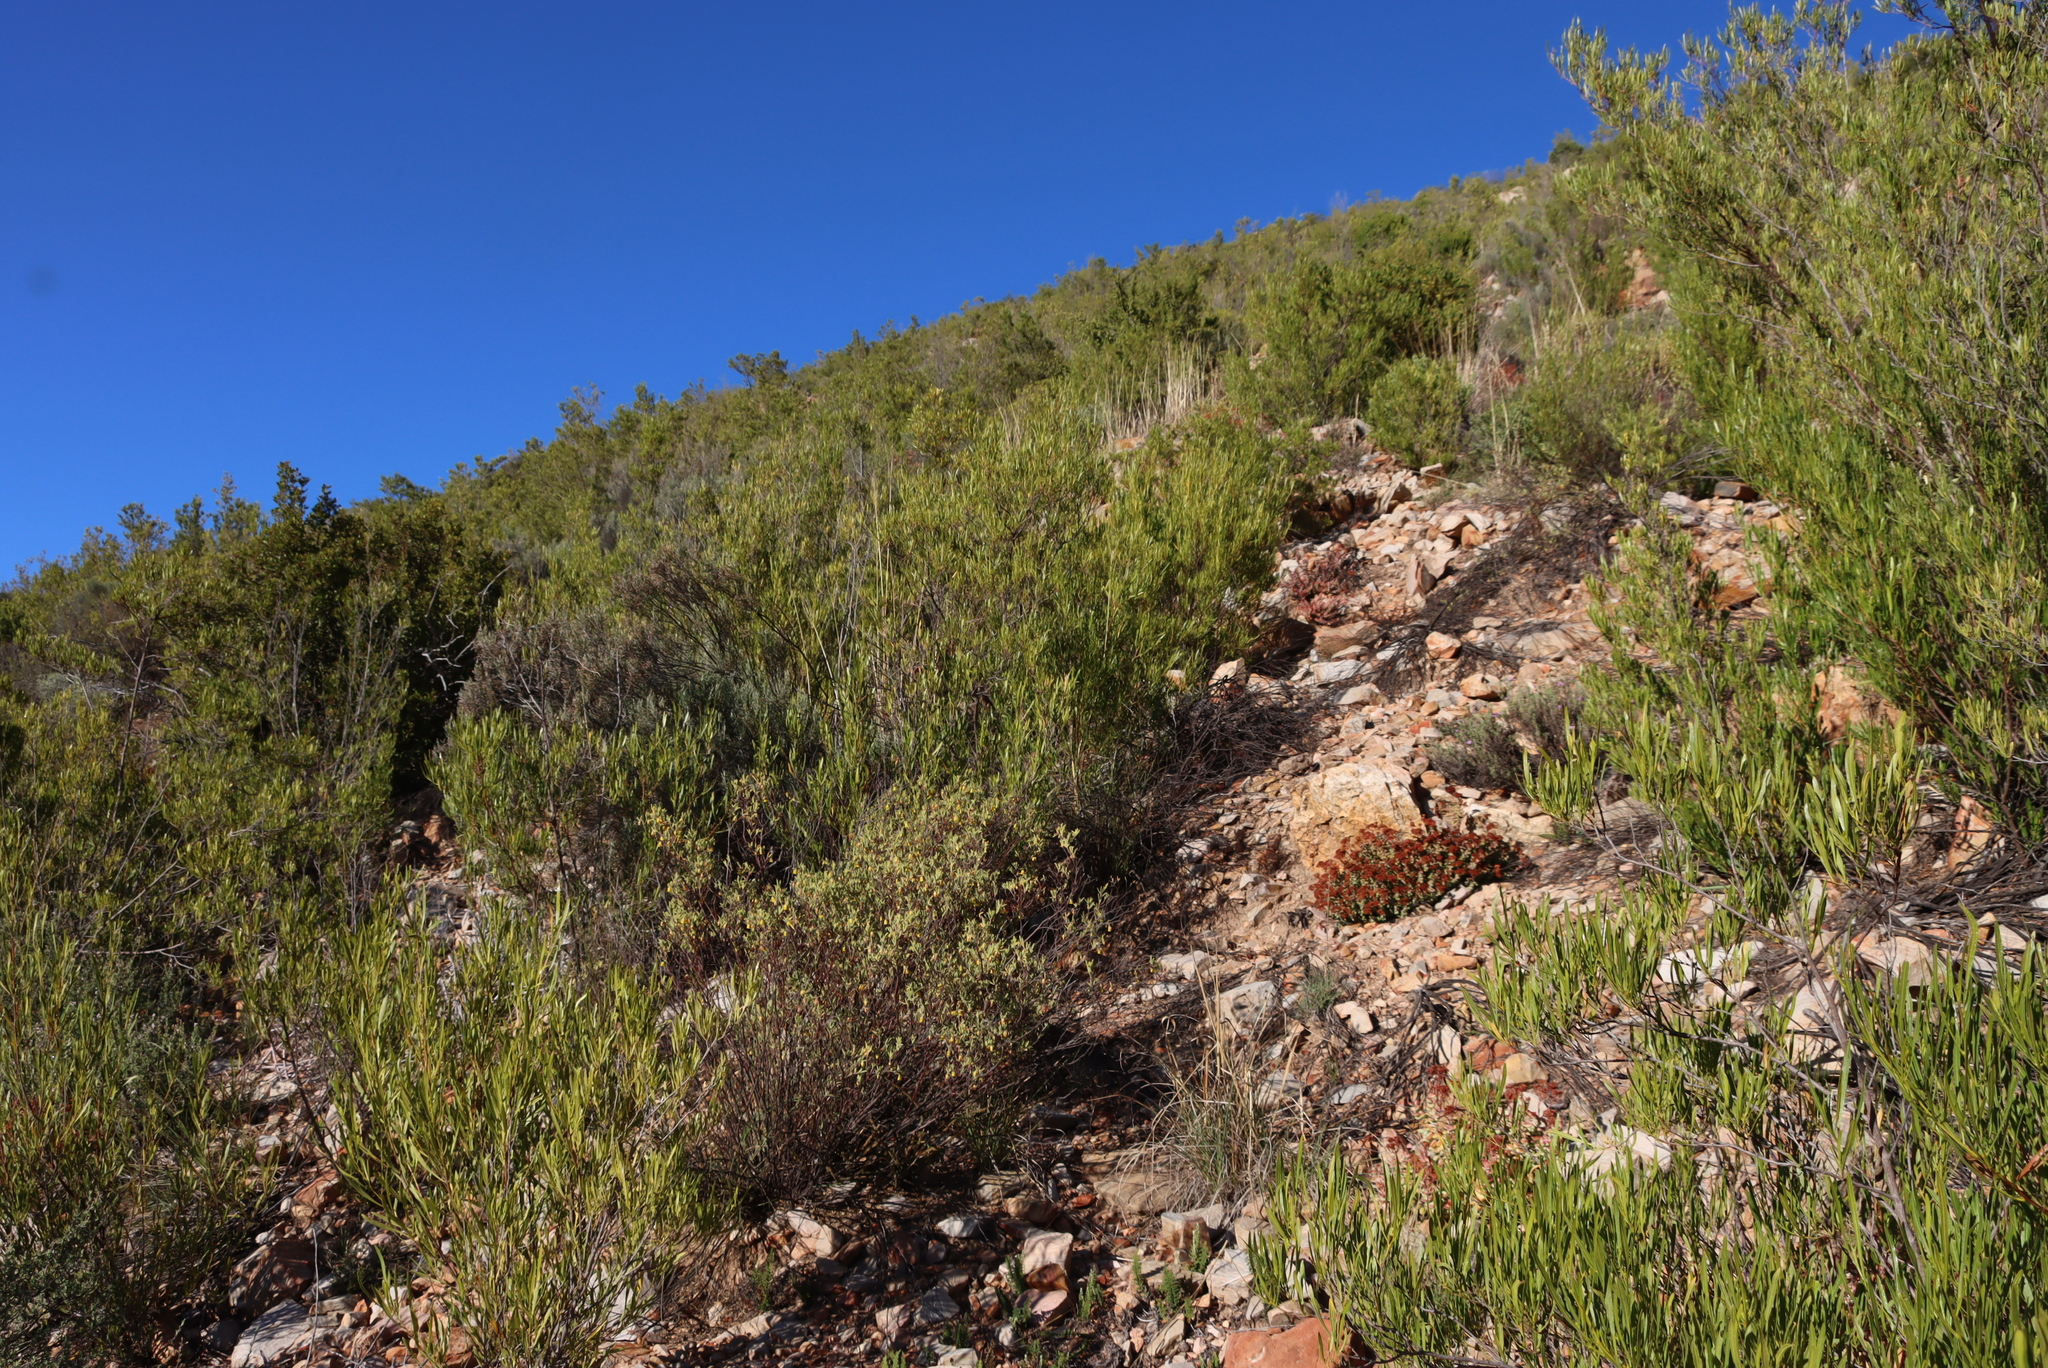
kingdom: Plantae
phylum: Tracheophyta
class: Magnoliopsida
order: Sapindales
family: Sapindaceae
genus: Dodonaea
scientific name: Dodonaea viscosa
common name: Hopbush
